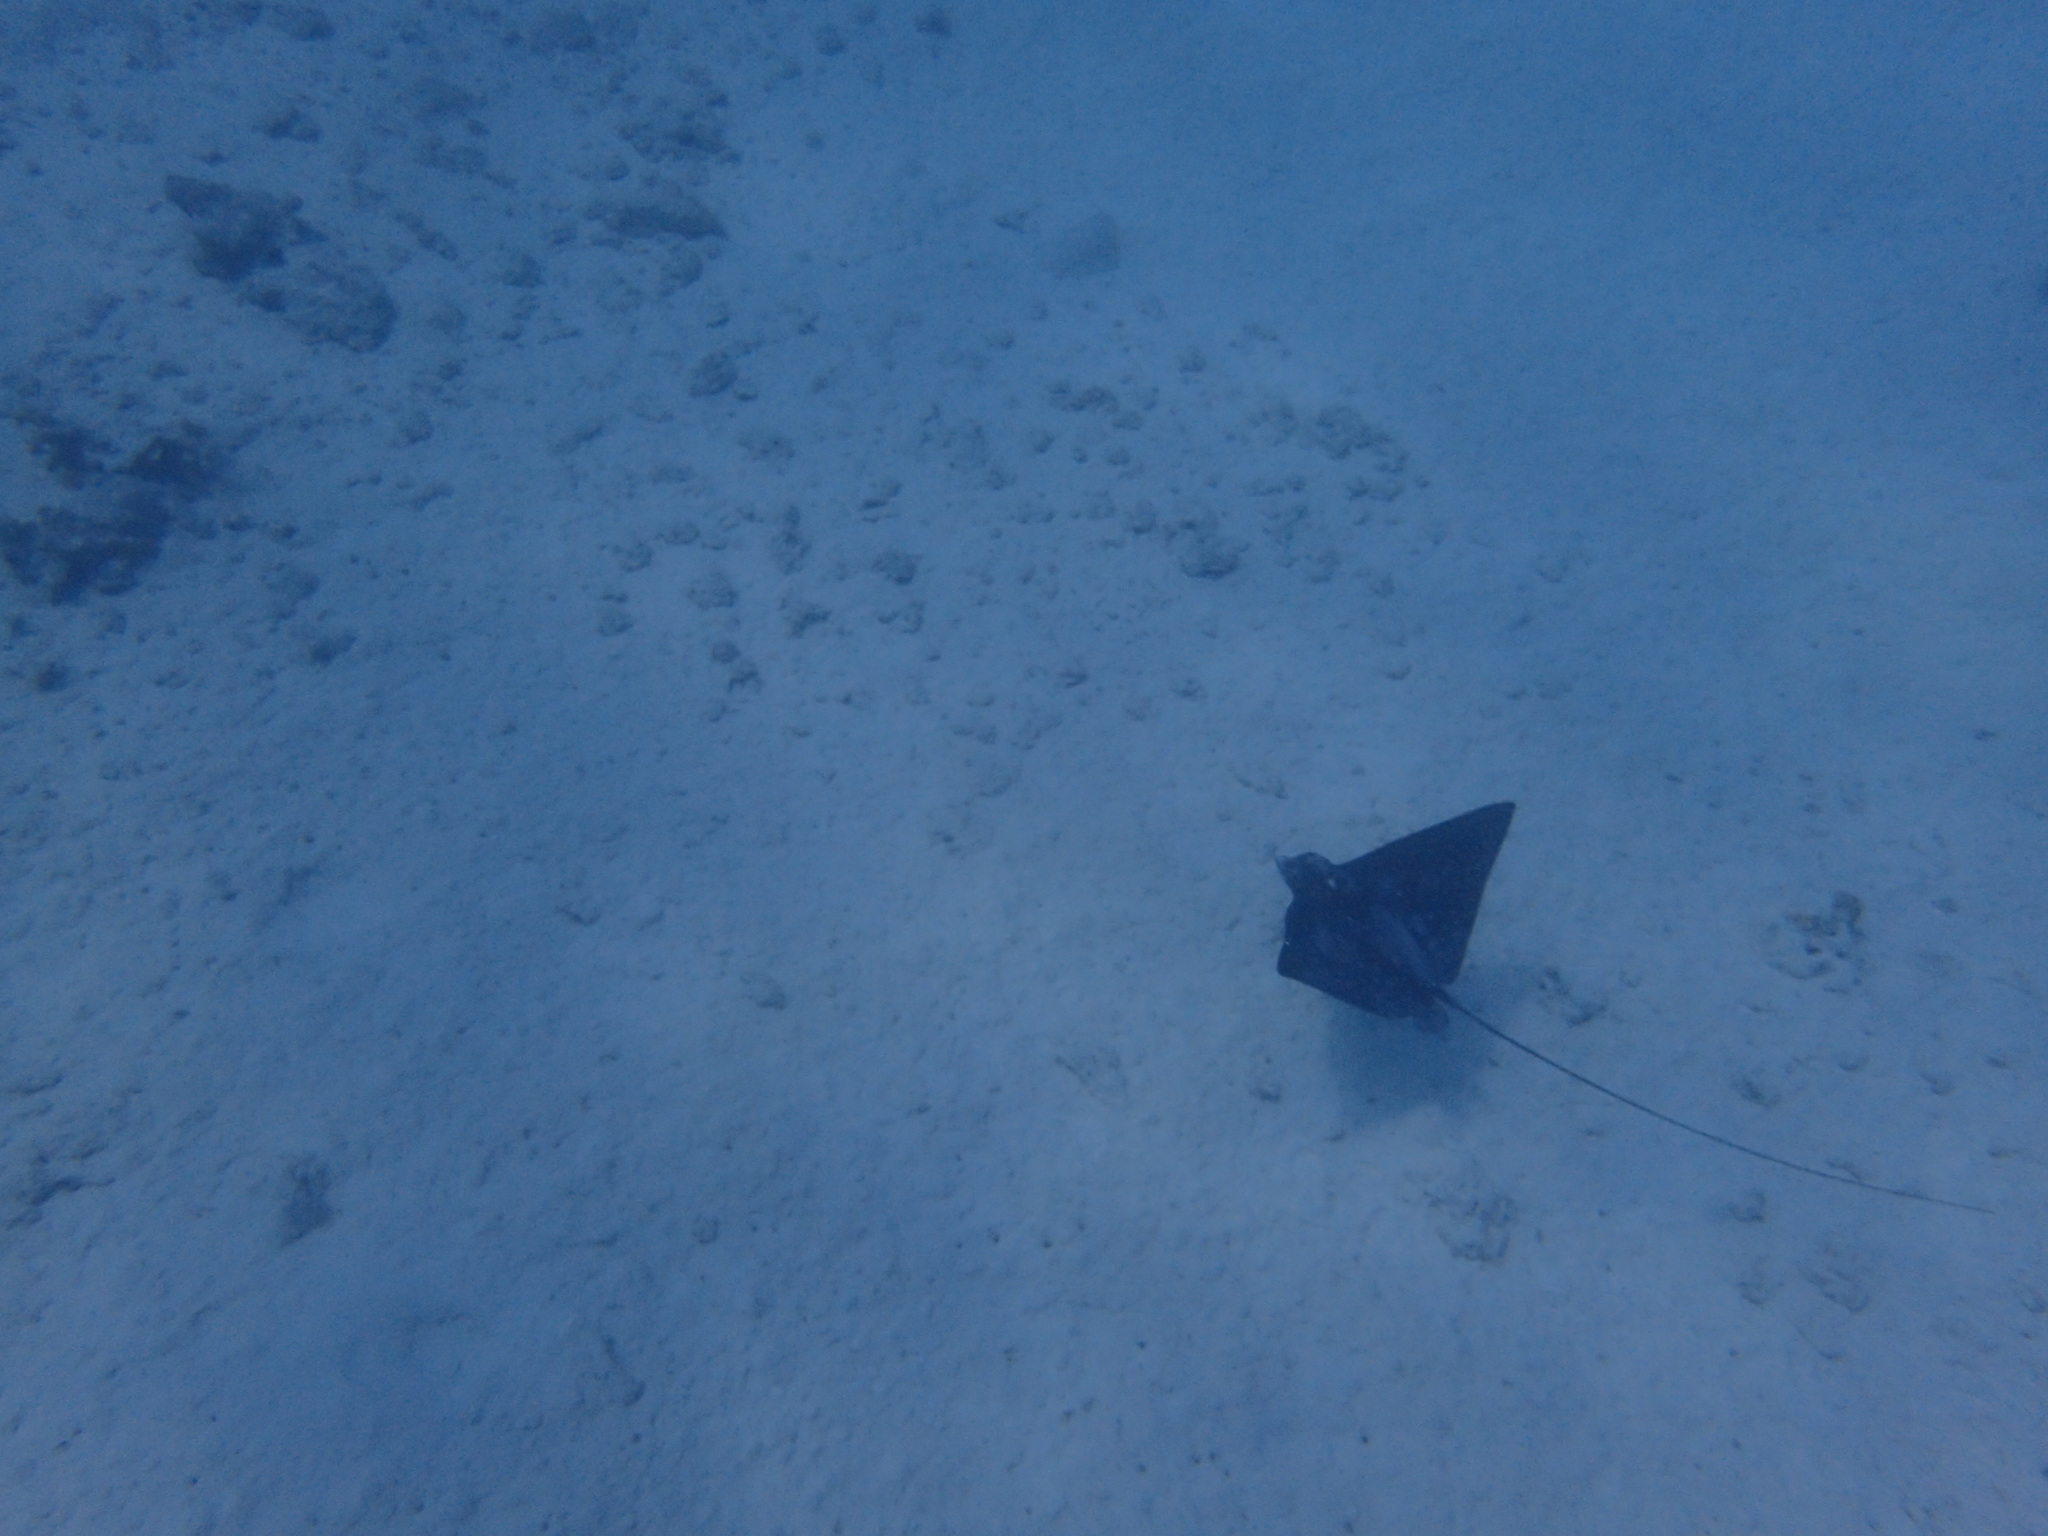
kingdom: Animalia
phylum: Chordata
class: Elasmobranchii
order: Myliobatiformes
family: Myliobatidae
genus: Aetobatus
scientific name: Aetobatus ocellatus
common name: Ocellated eagle ray
